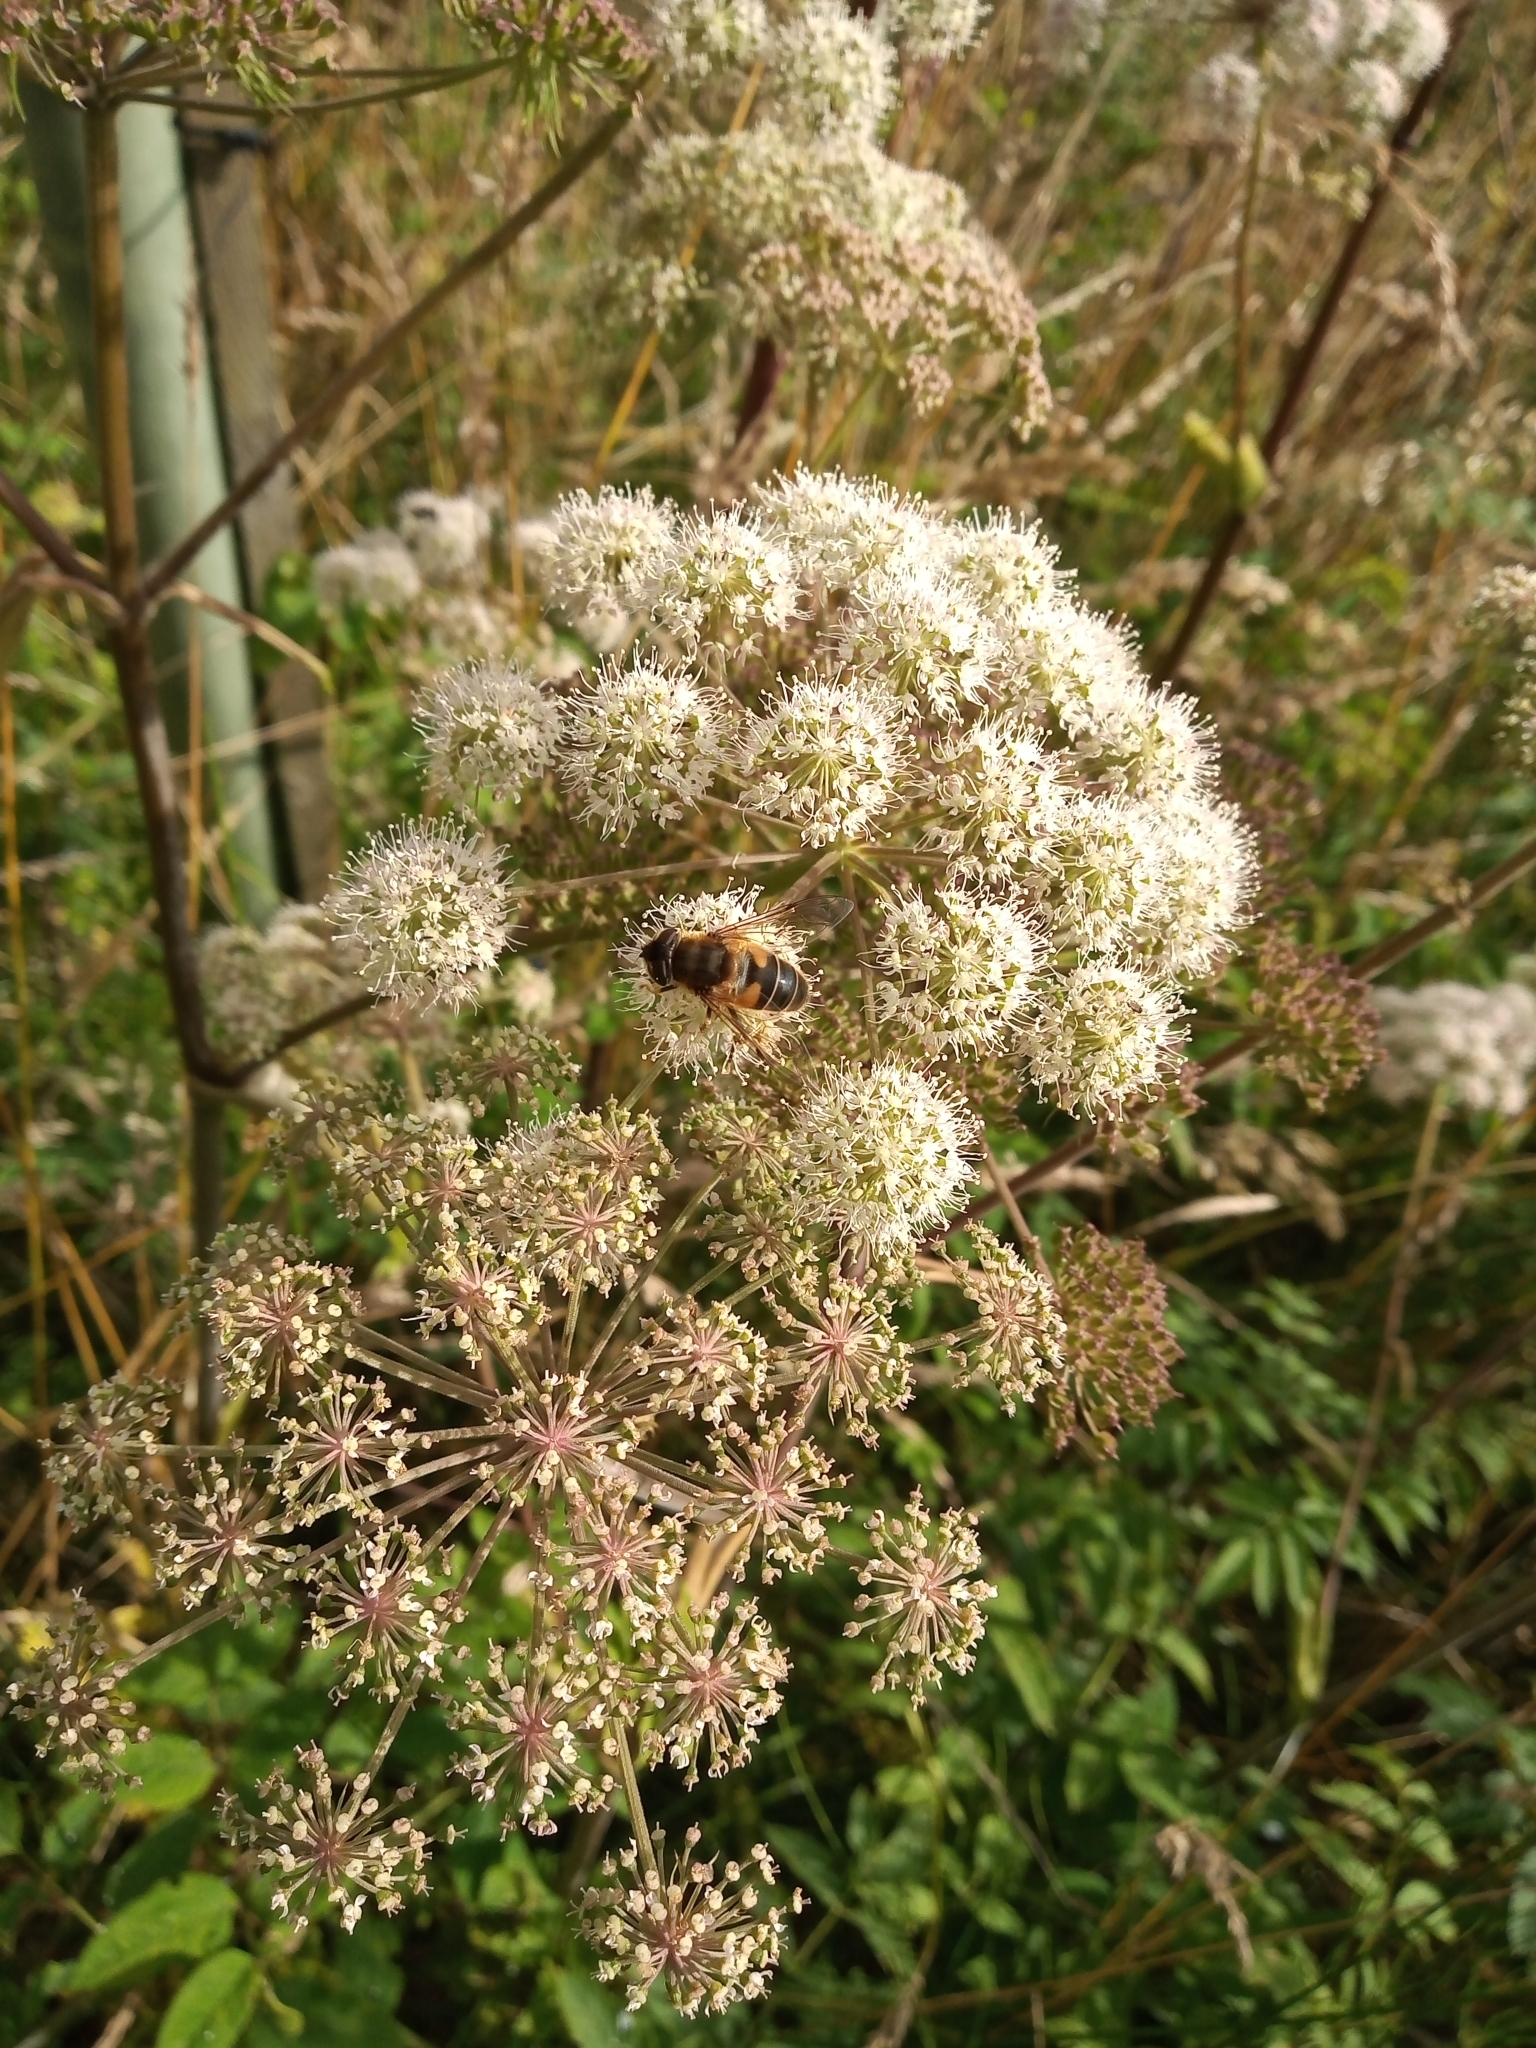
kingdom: Animalia
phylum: Arthropoda
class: Insecta
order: Diptera
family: Syrphidae
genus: Eristalis
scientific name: Eristalis pertinax
